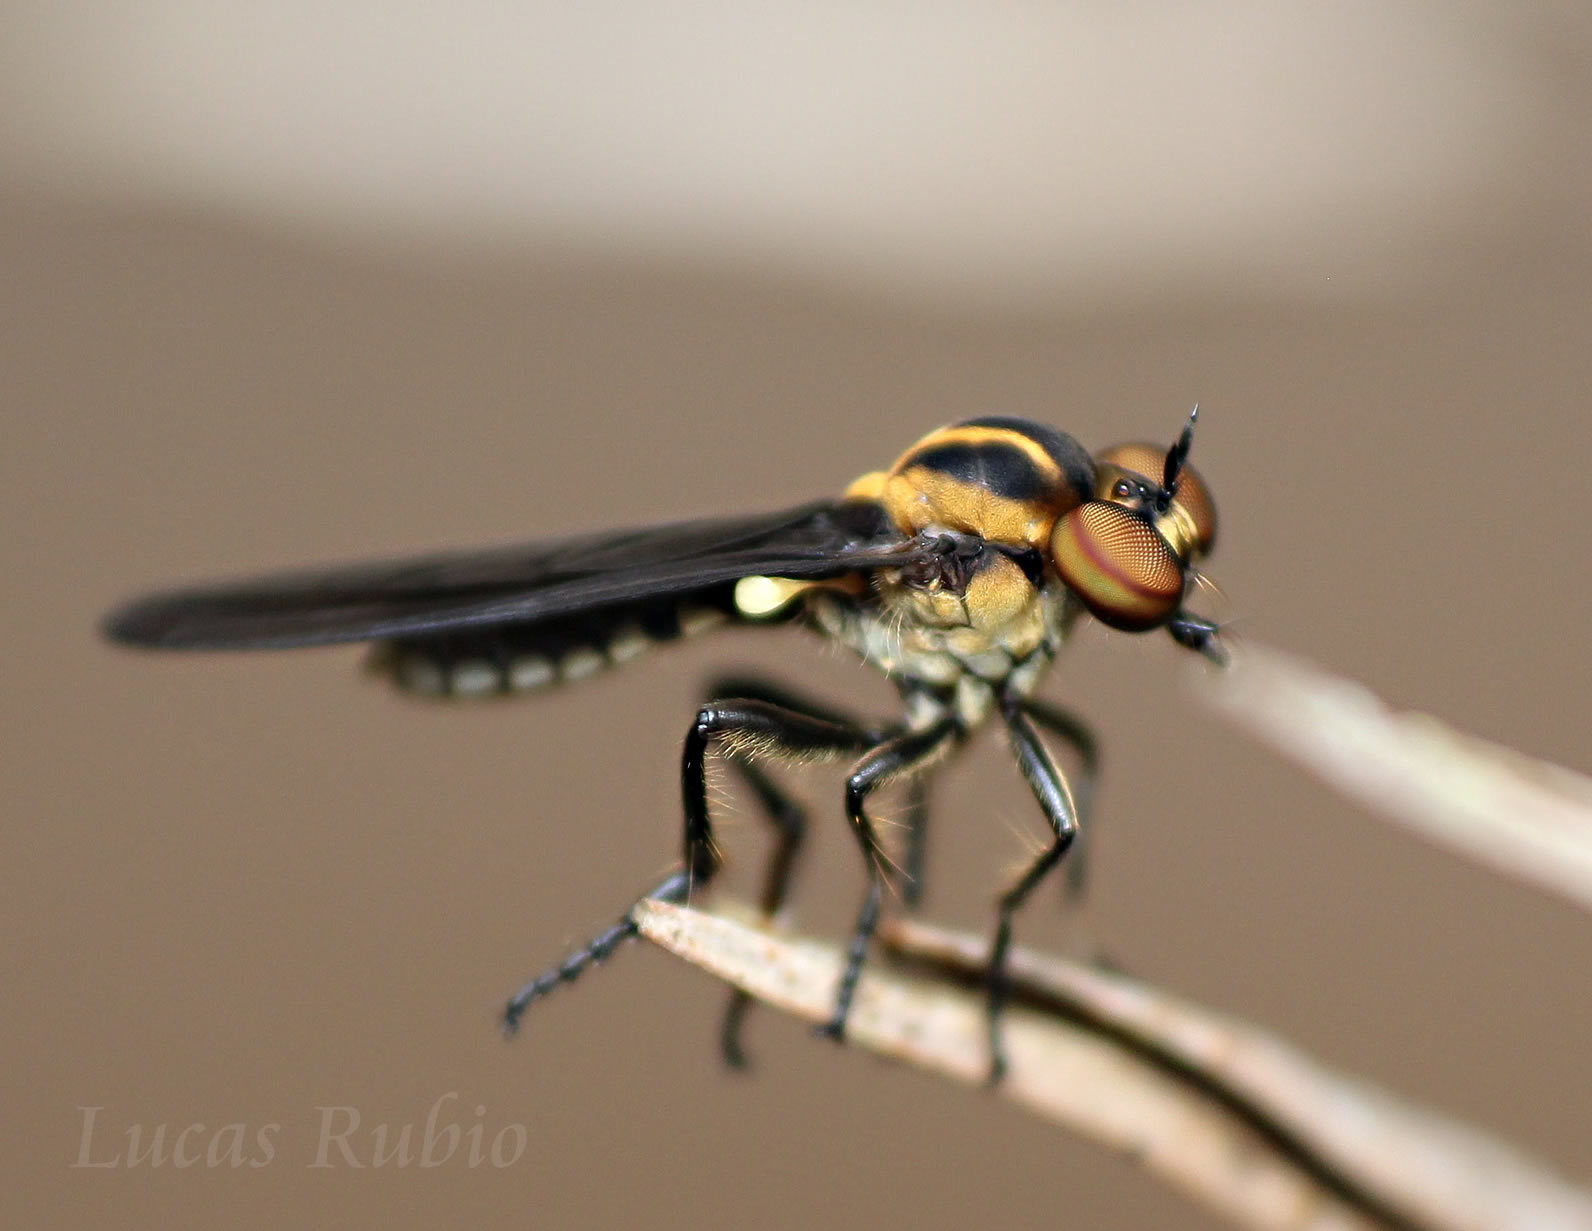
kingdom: Animalia
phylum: Arthropoda
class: Insecta
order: Diptera
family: Asilidae
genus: Holcocephala
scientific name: Holcocephala
